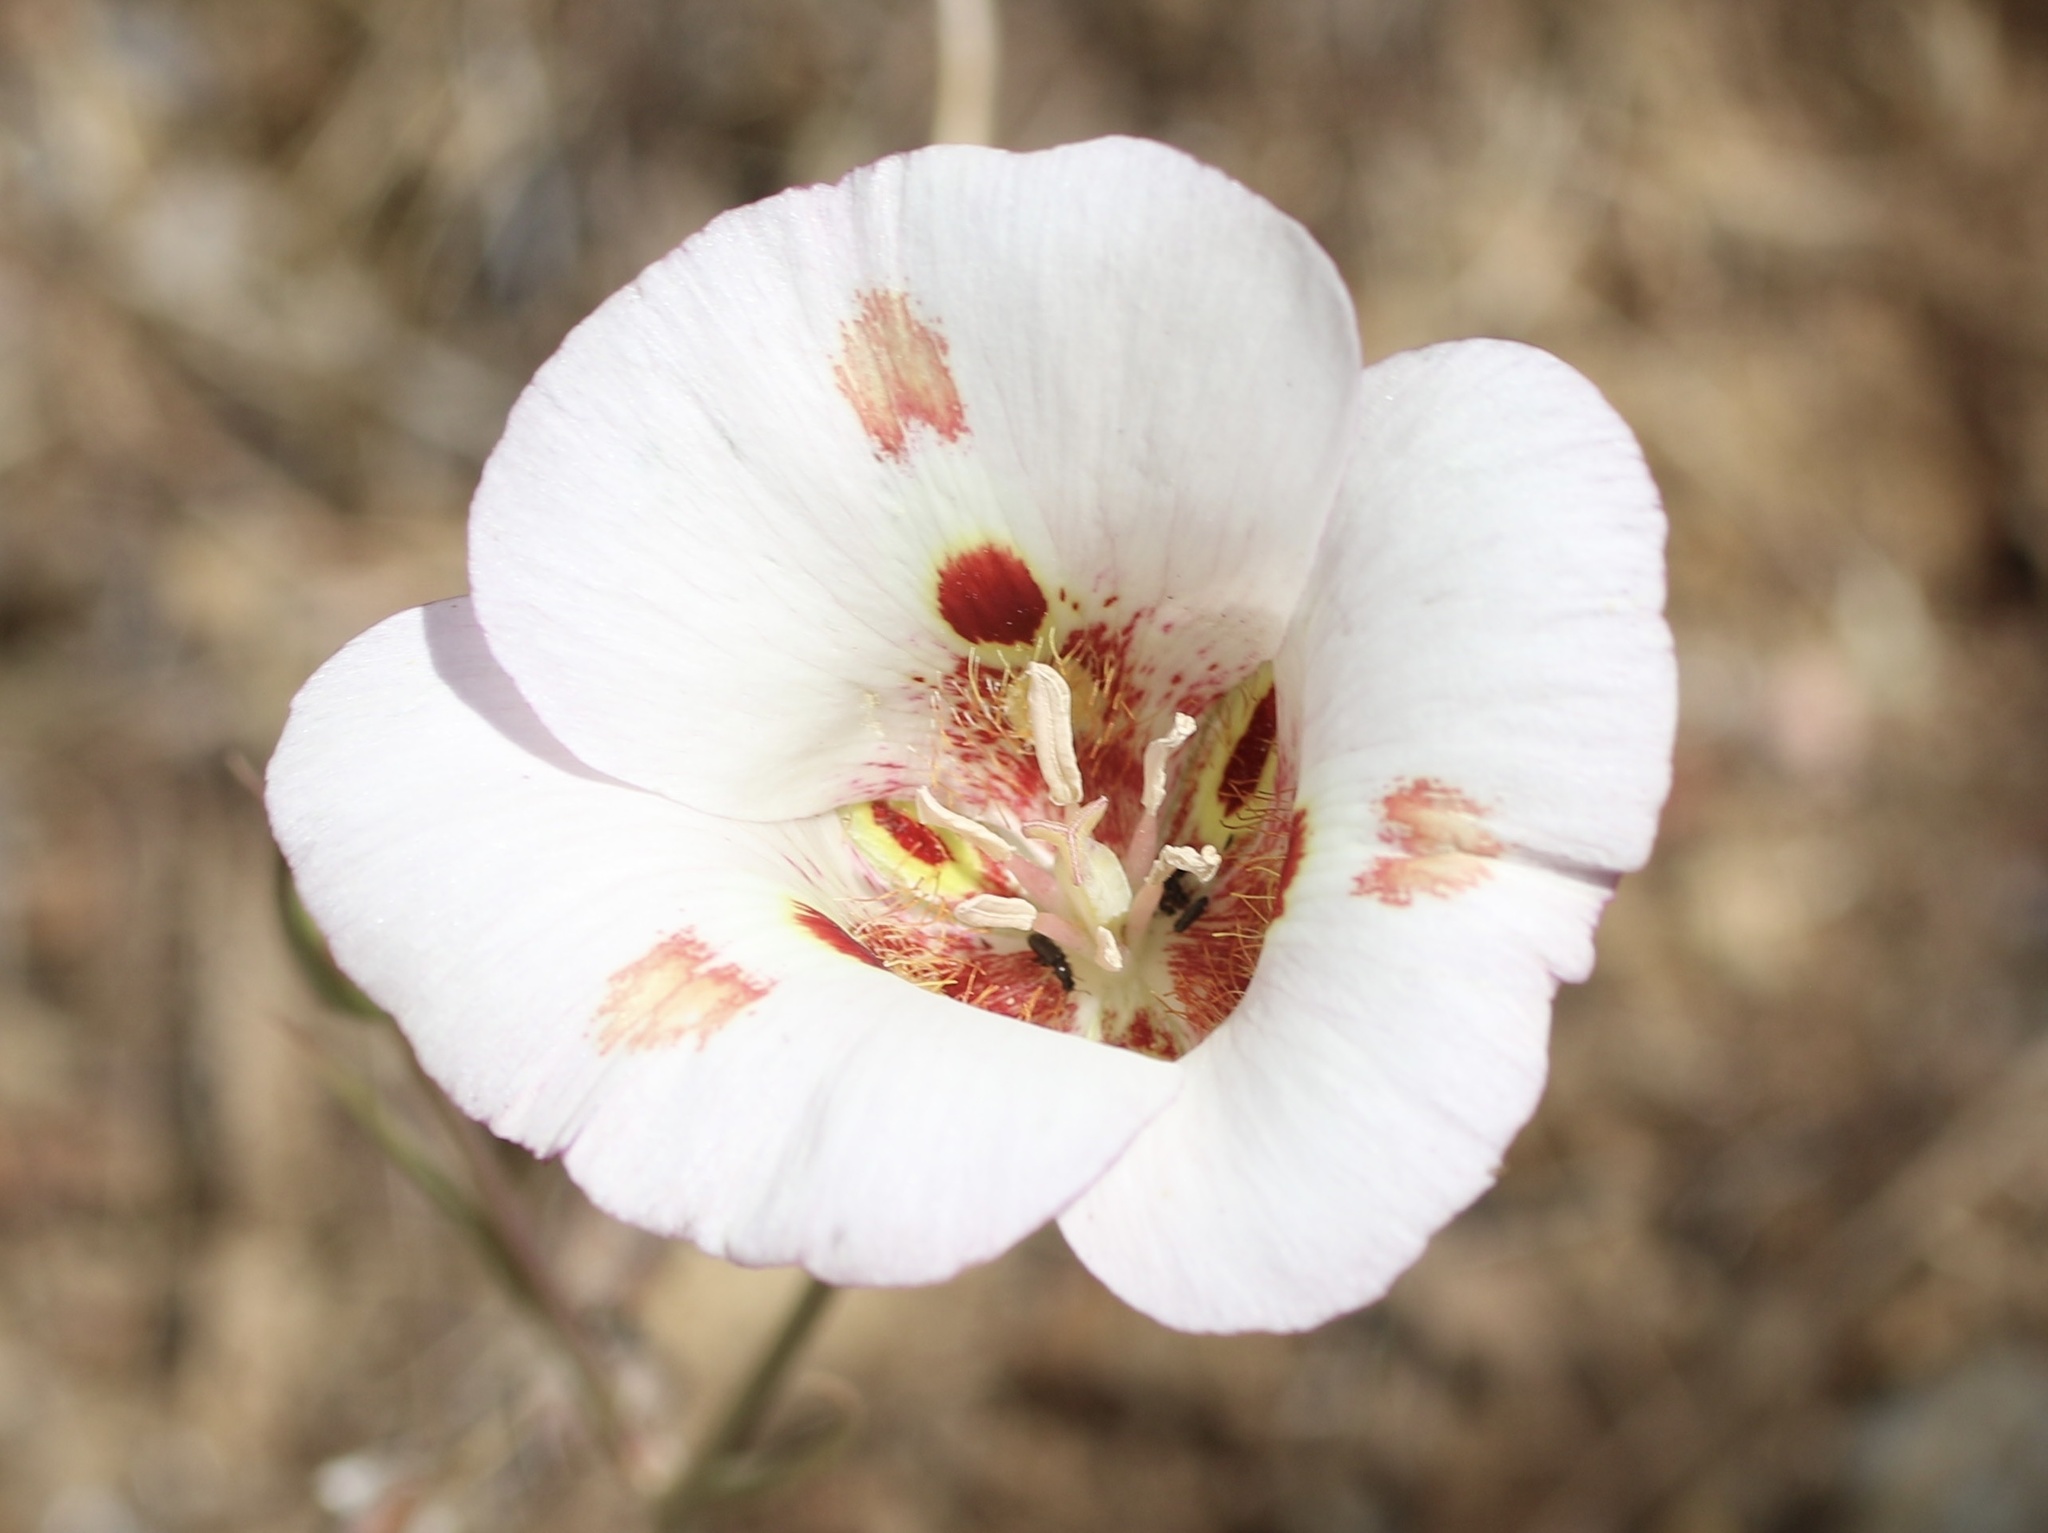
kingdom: Plantae
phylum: Tracheophyta
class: Liliopsida
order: Liliales
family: Liliaceae
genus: Calochortus
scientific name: Calochortus venustus
